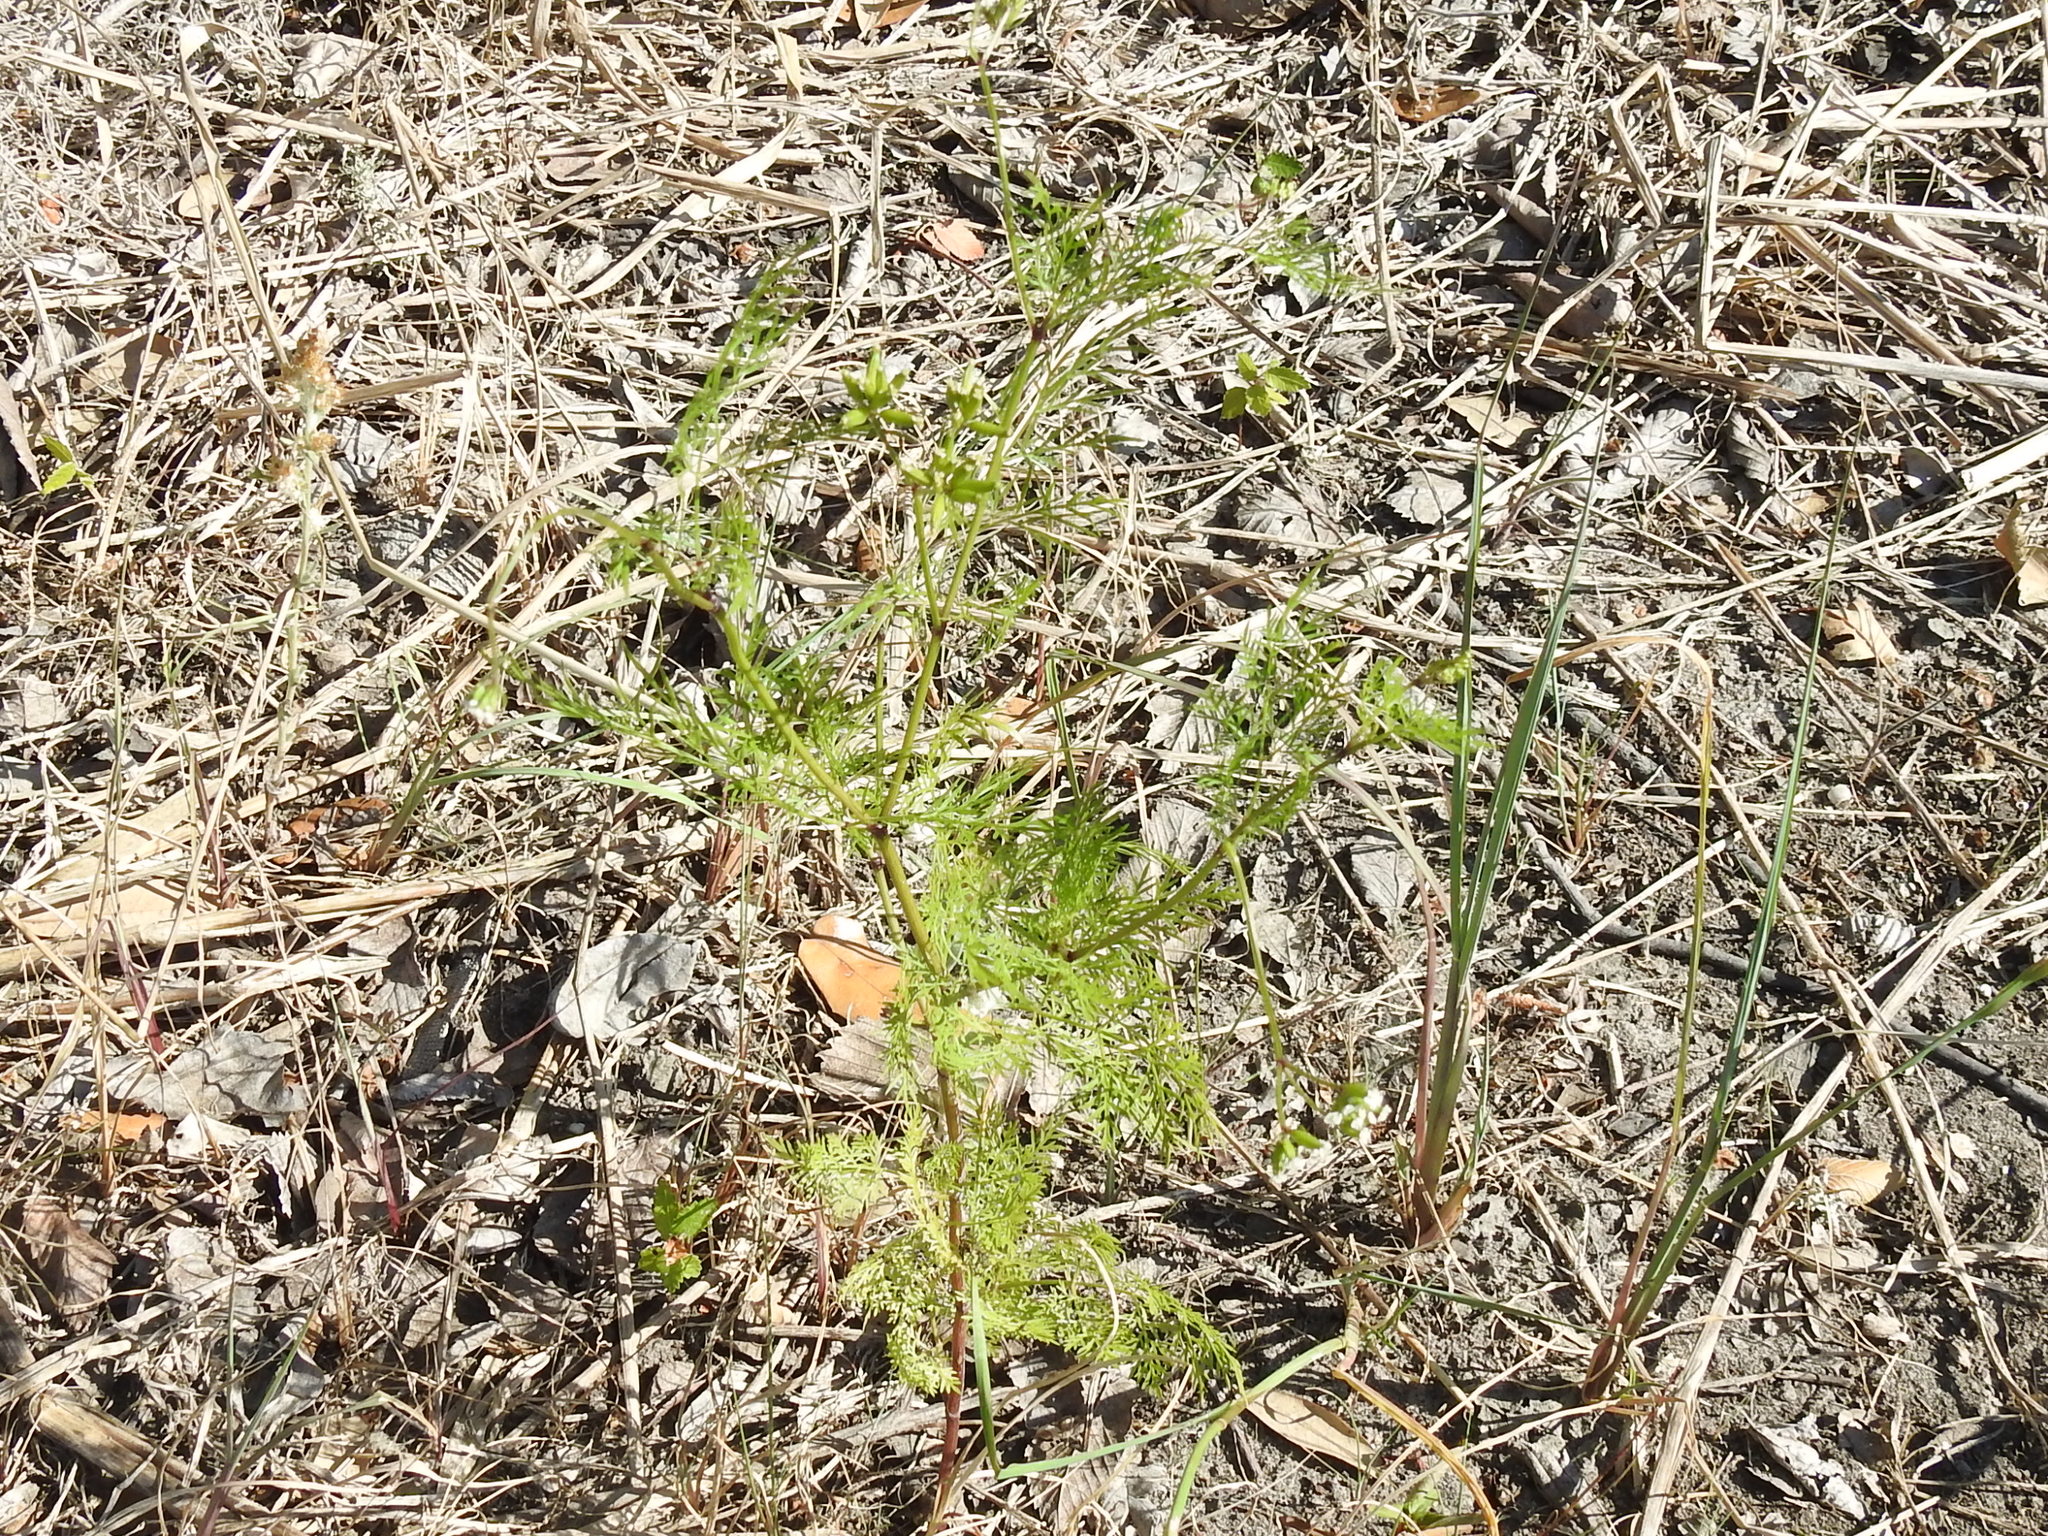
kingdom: Plantae
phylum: Tracheophyta
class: Magnoliopsida
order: Apiales
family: Apiaceae
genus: Trepocarpus
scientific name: Trepocarpus aethusae
